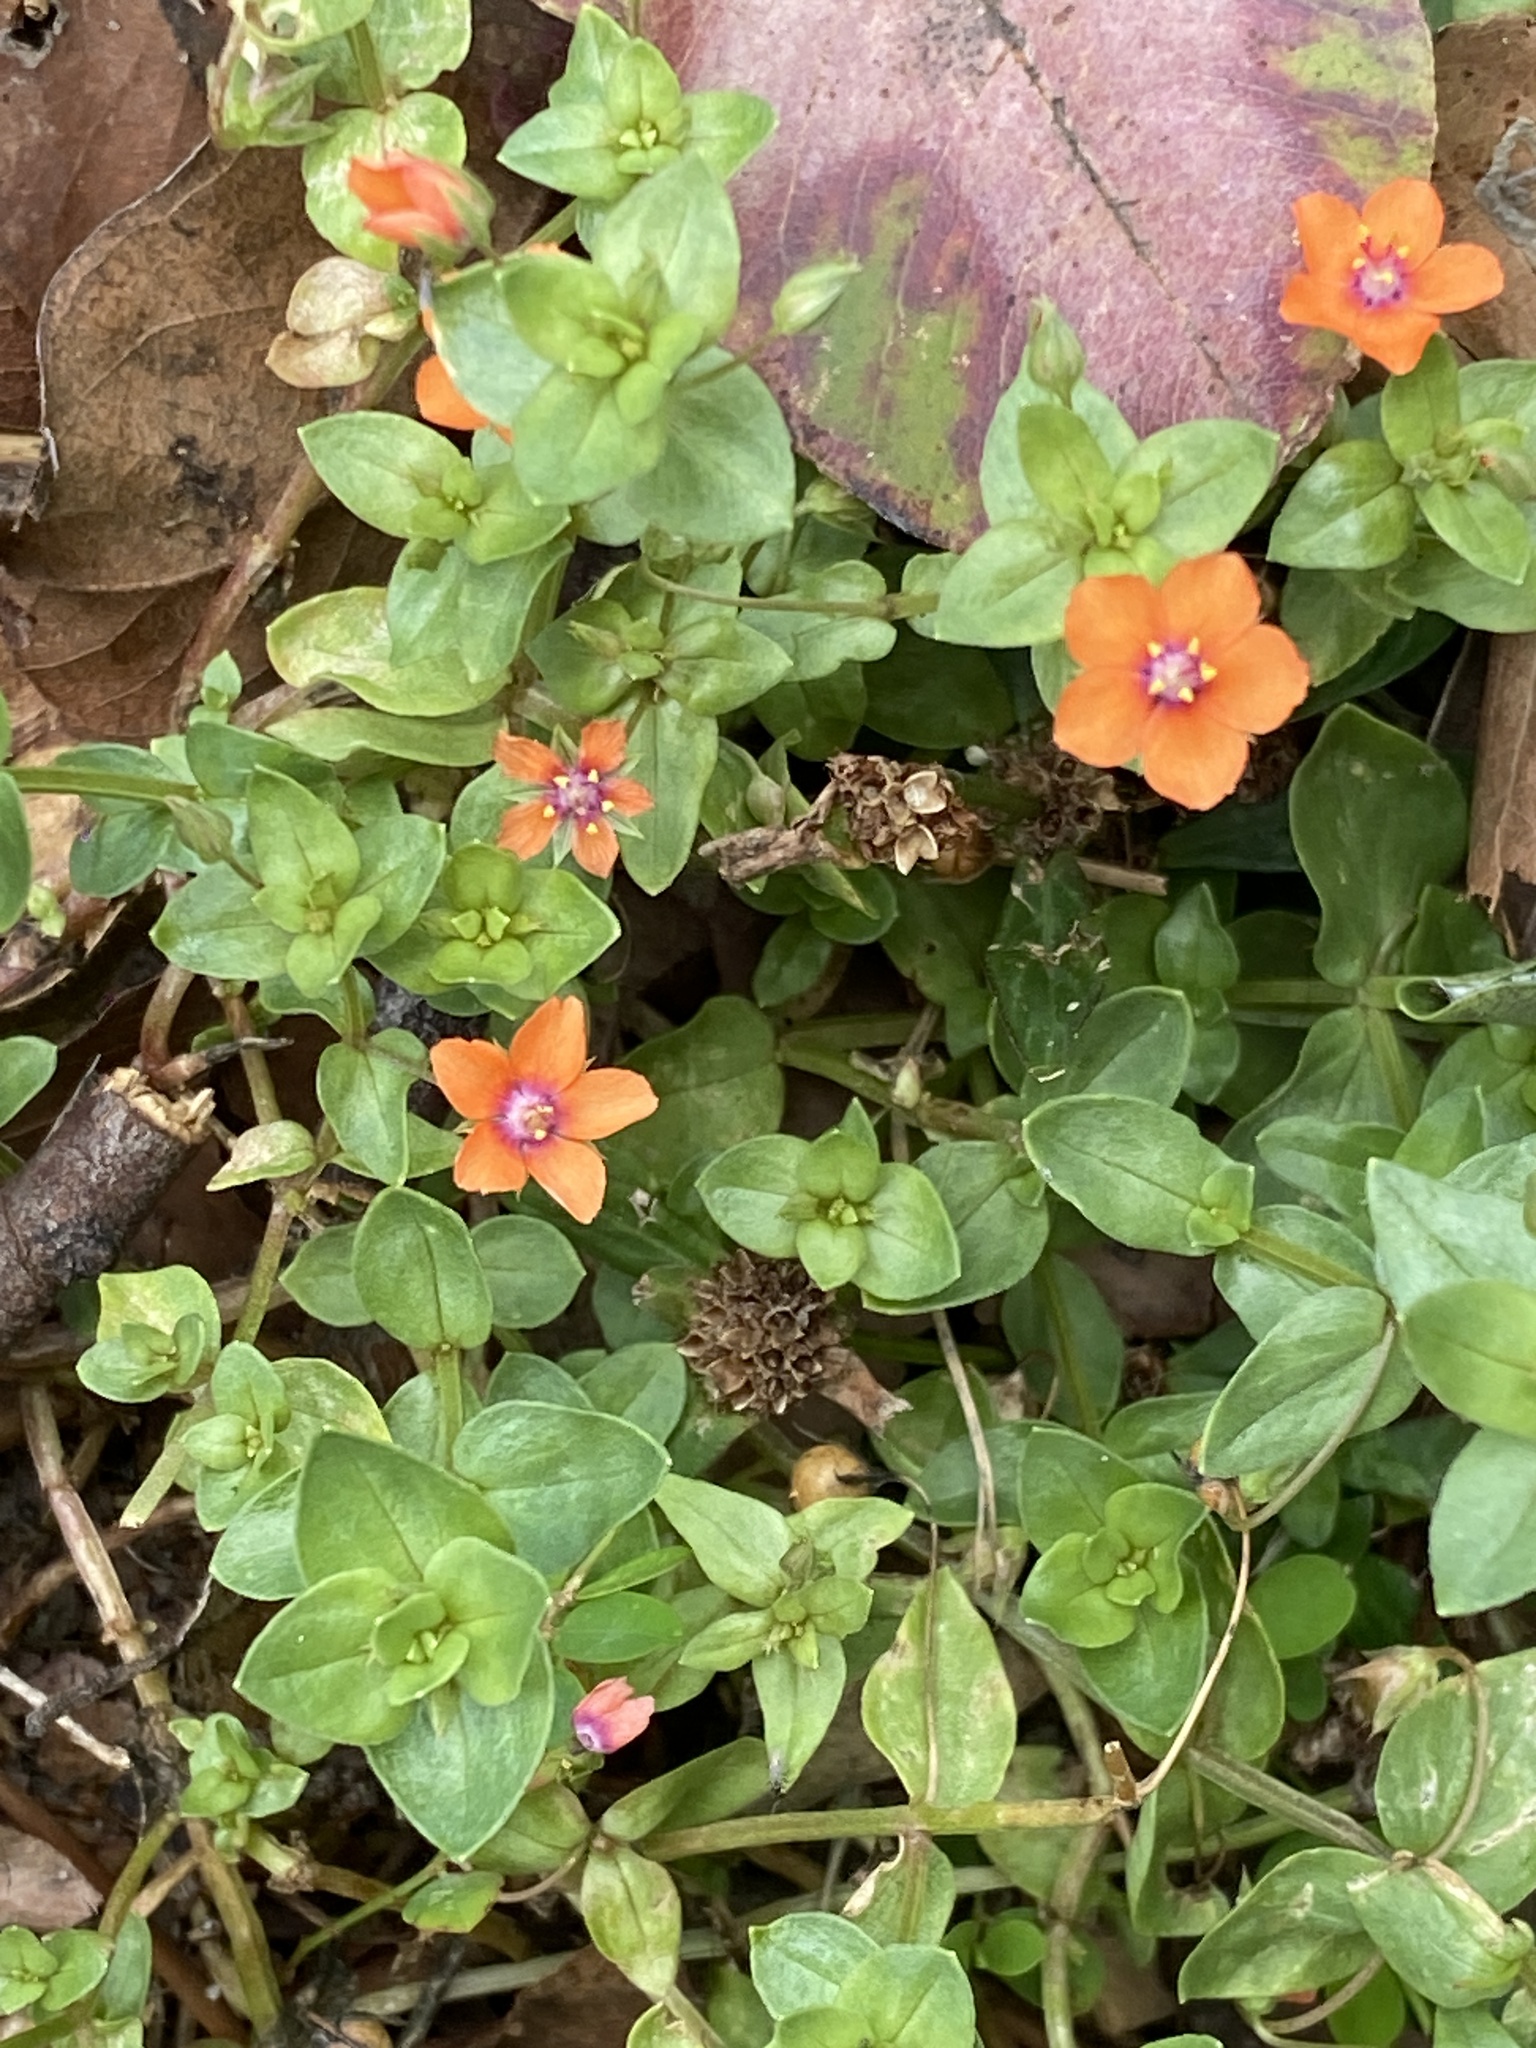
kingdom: Plantae
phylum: Tracheophyta
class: Magnoliopsida
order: Ericales
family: Primulaceae
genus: Lysimachia
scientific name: Lysimachia arvensis
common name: Scarlet pimpernel
